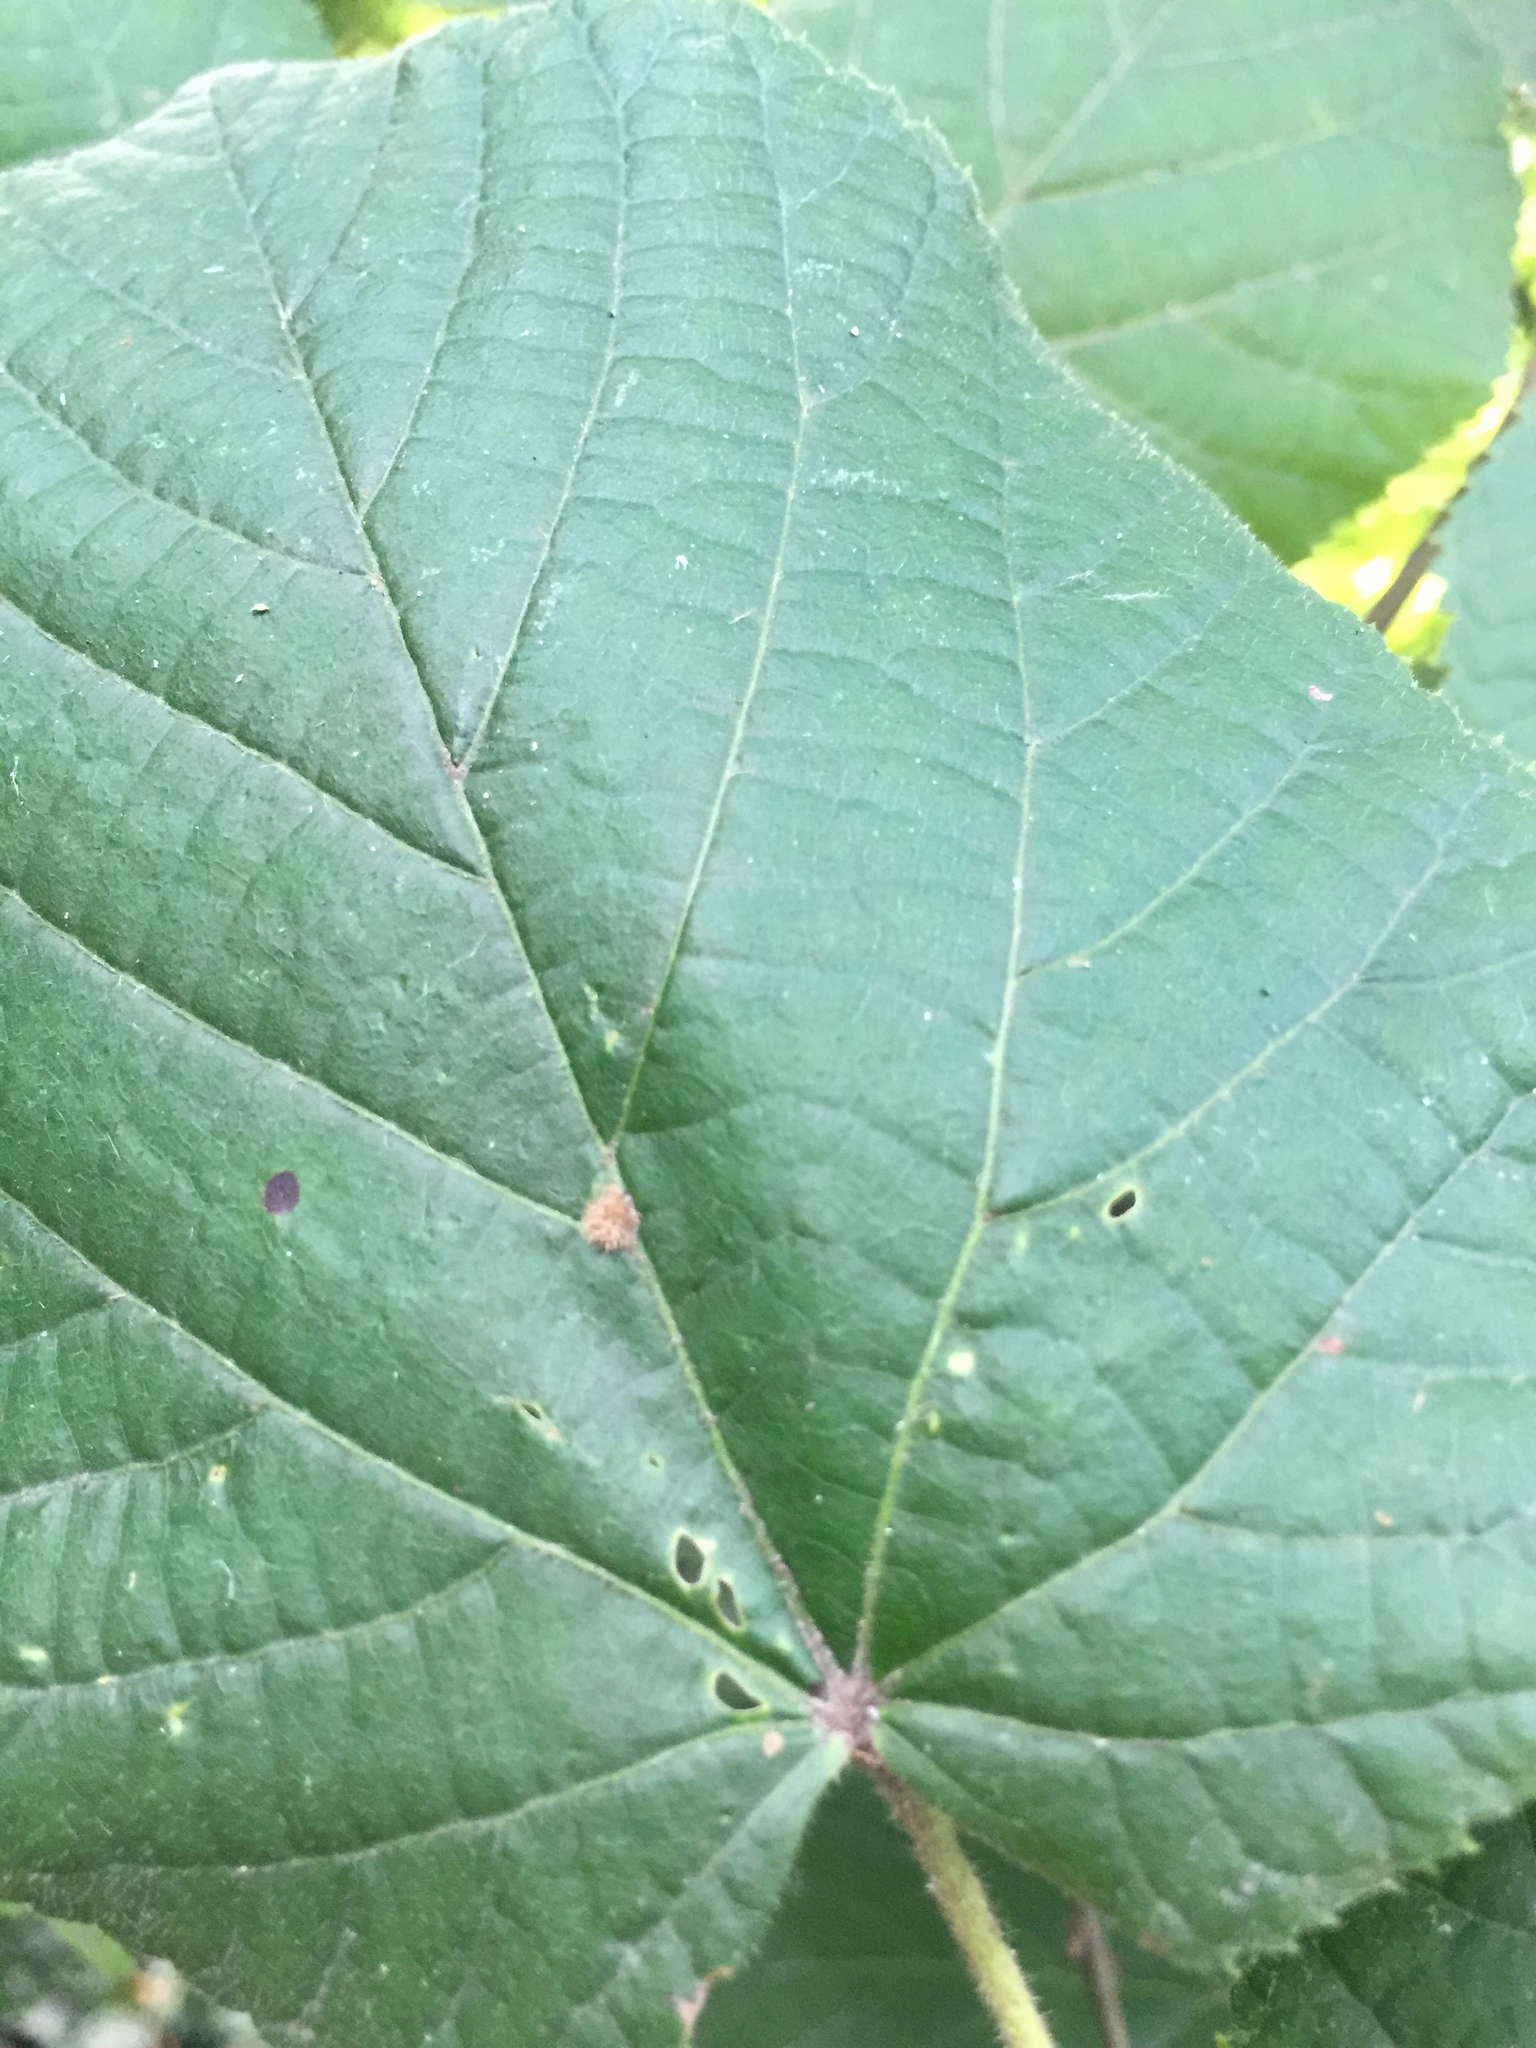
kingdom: Animalia
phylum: Arthropoda
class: Arachnida
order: Trombidiformes
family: Eriophyidae
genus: Eriophyes
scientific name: Eriophyes exilis
